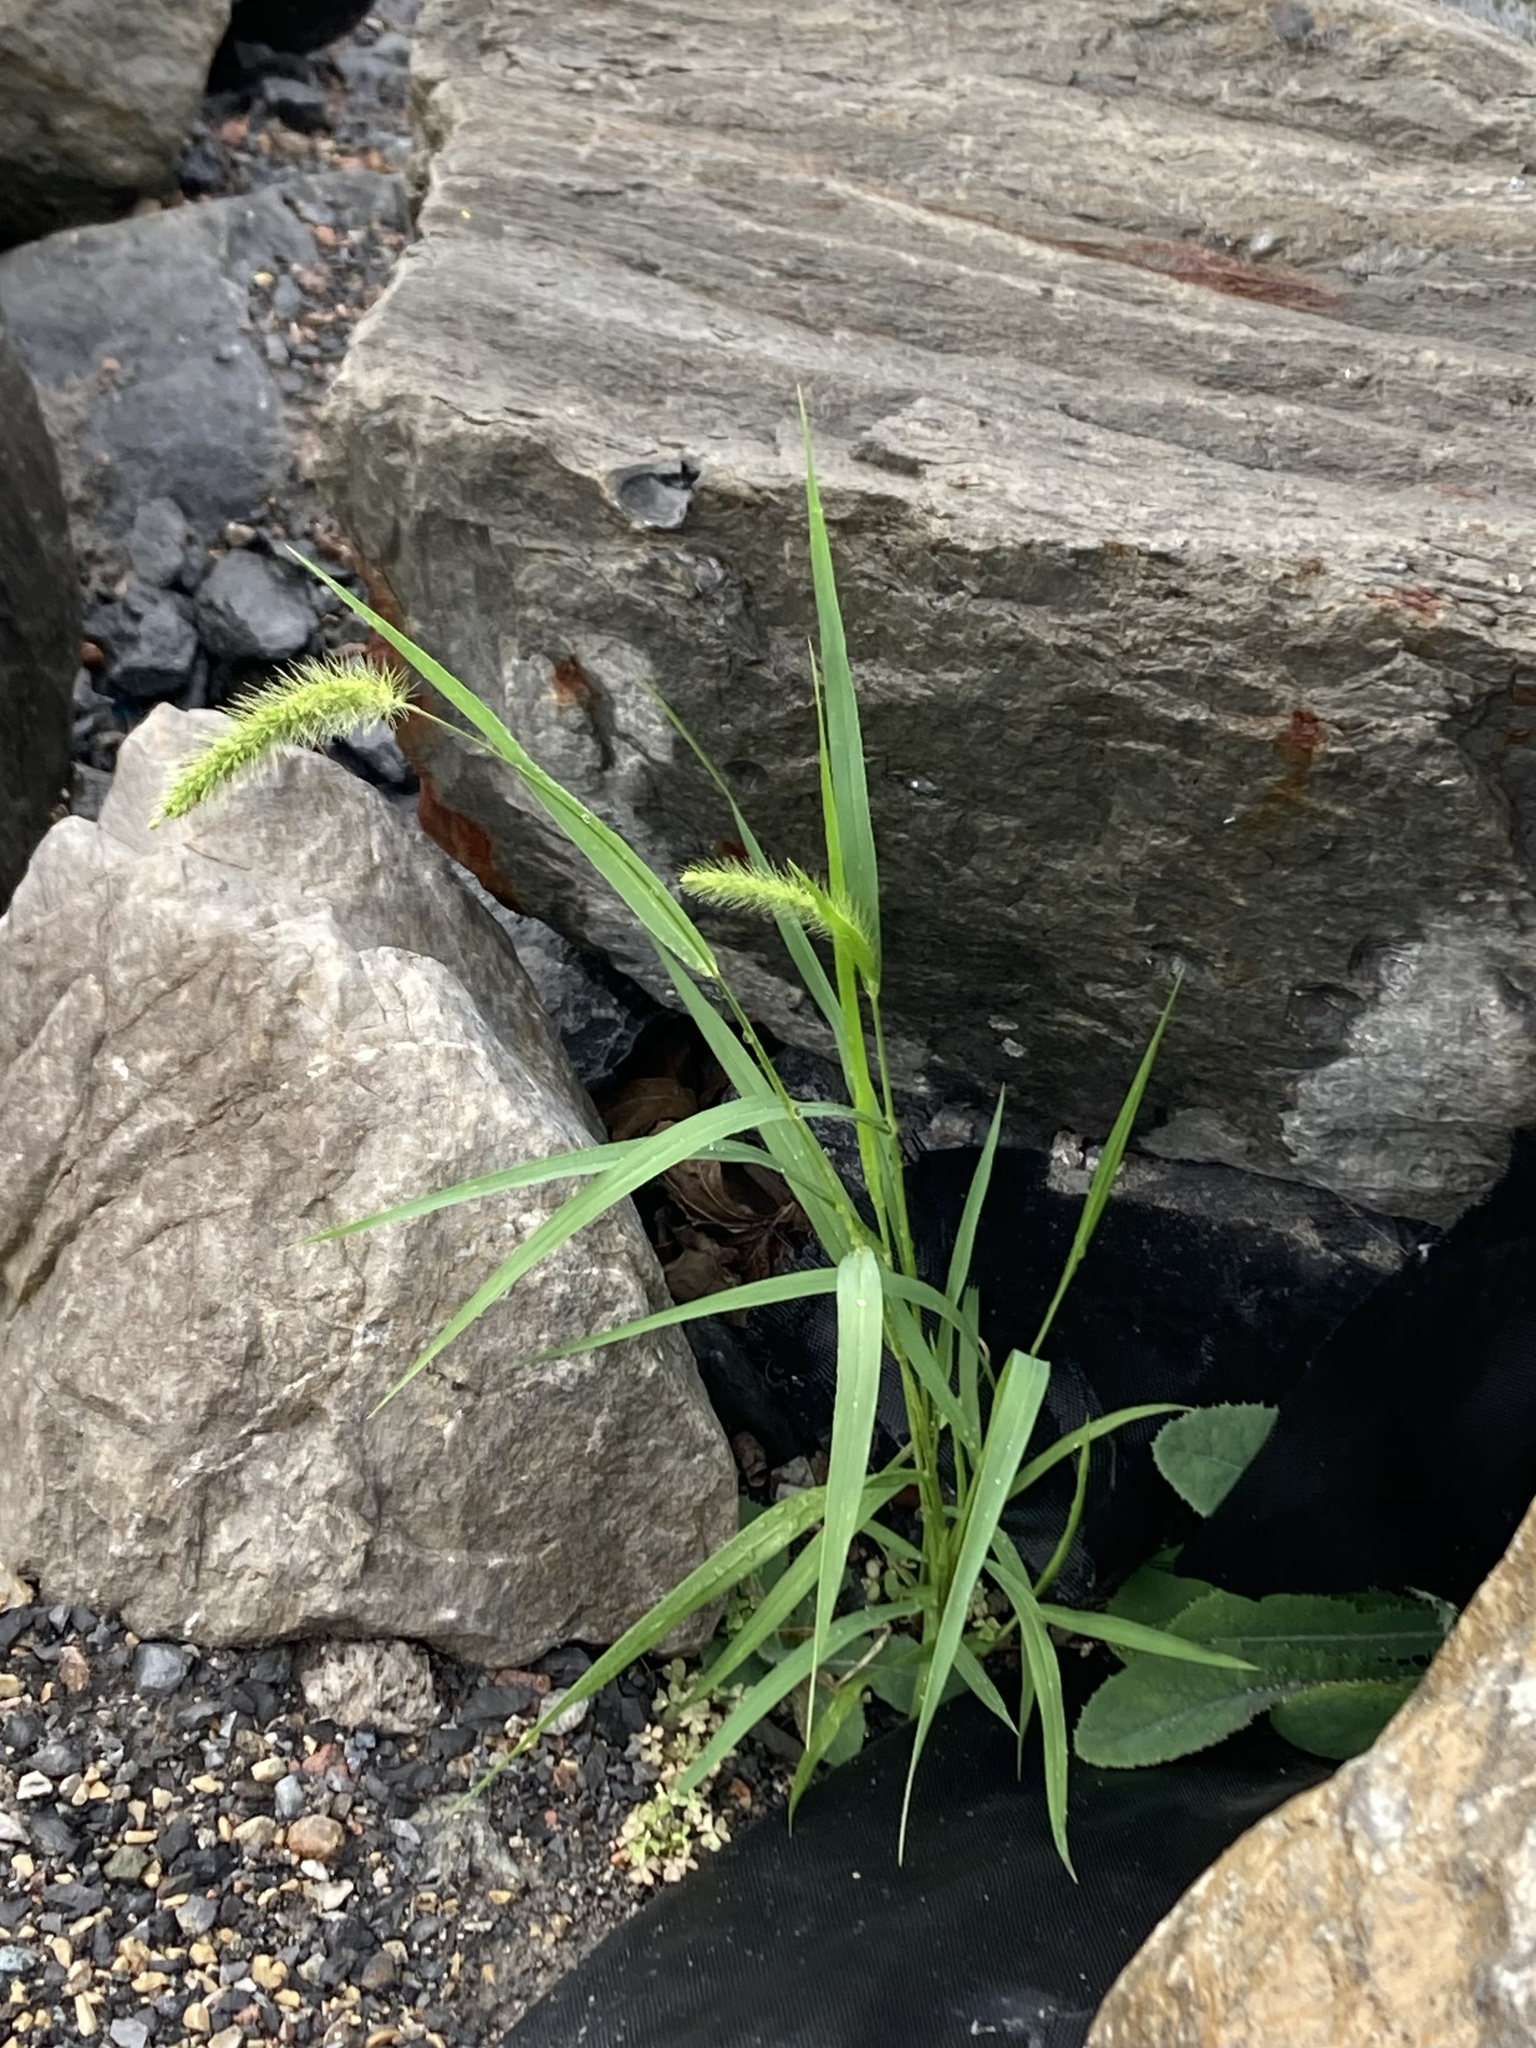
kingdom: Plantae
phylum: Tracheophyta
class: Liliopsida
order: Poales
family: Poaceae
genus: Setaria
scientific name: Setaria viridis
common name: Green bristlegrass
